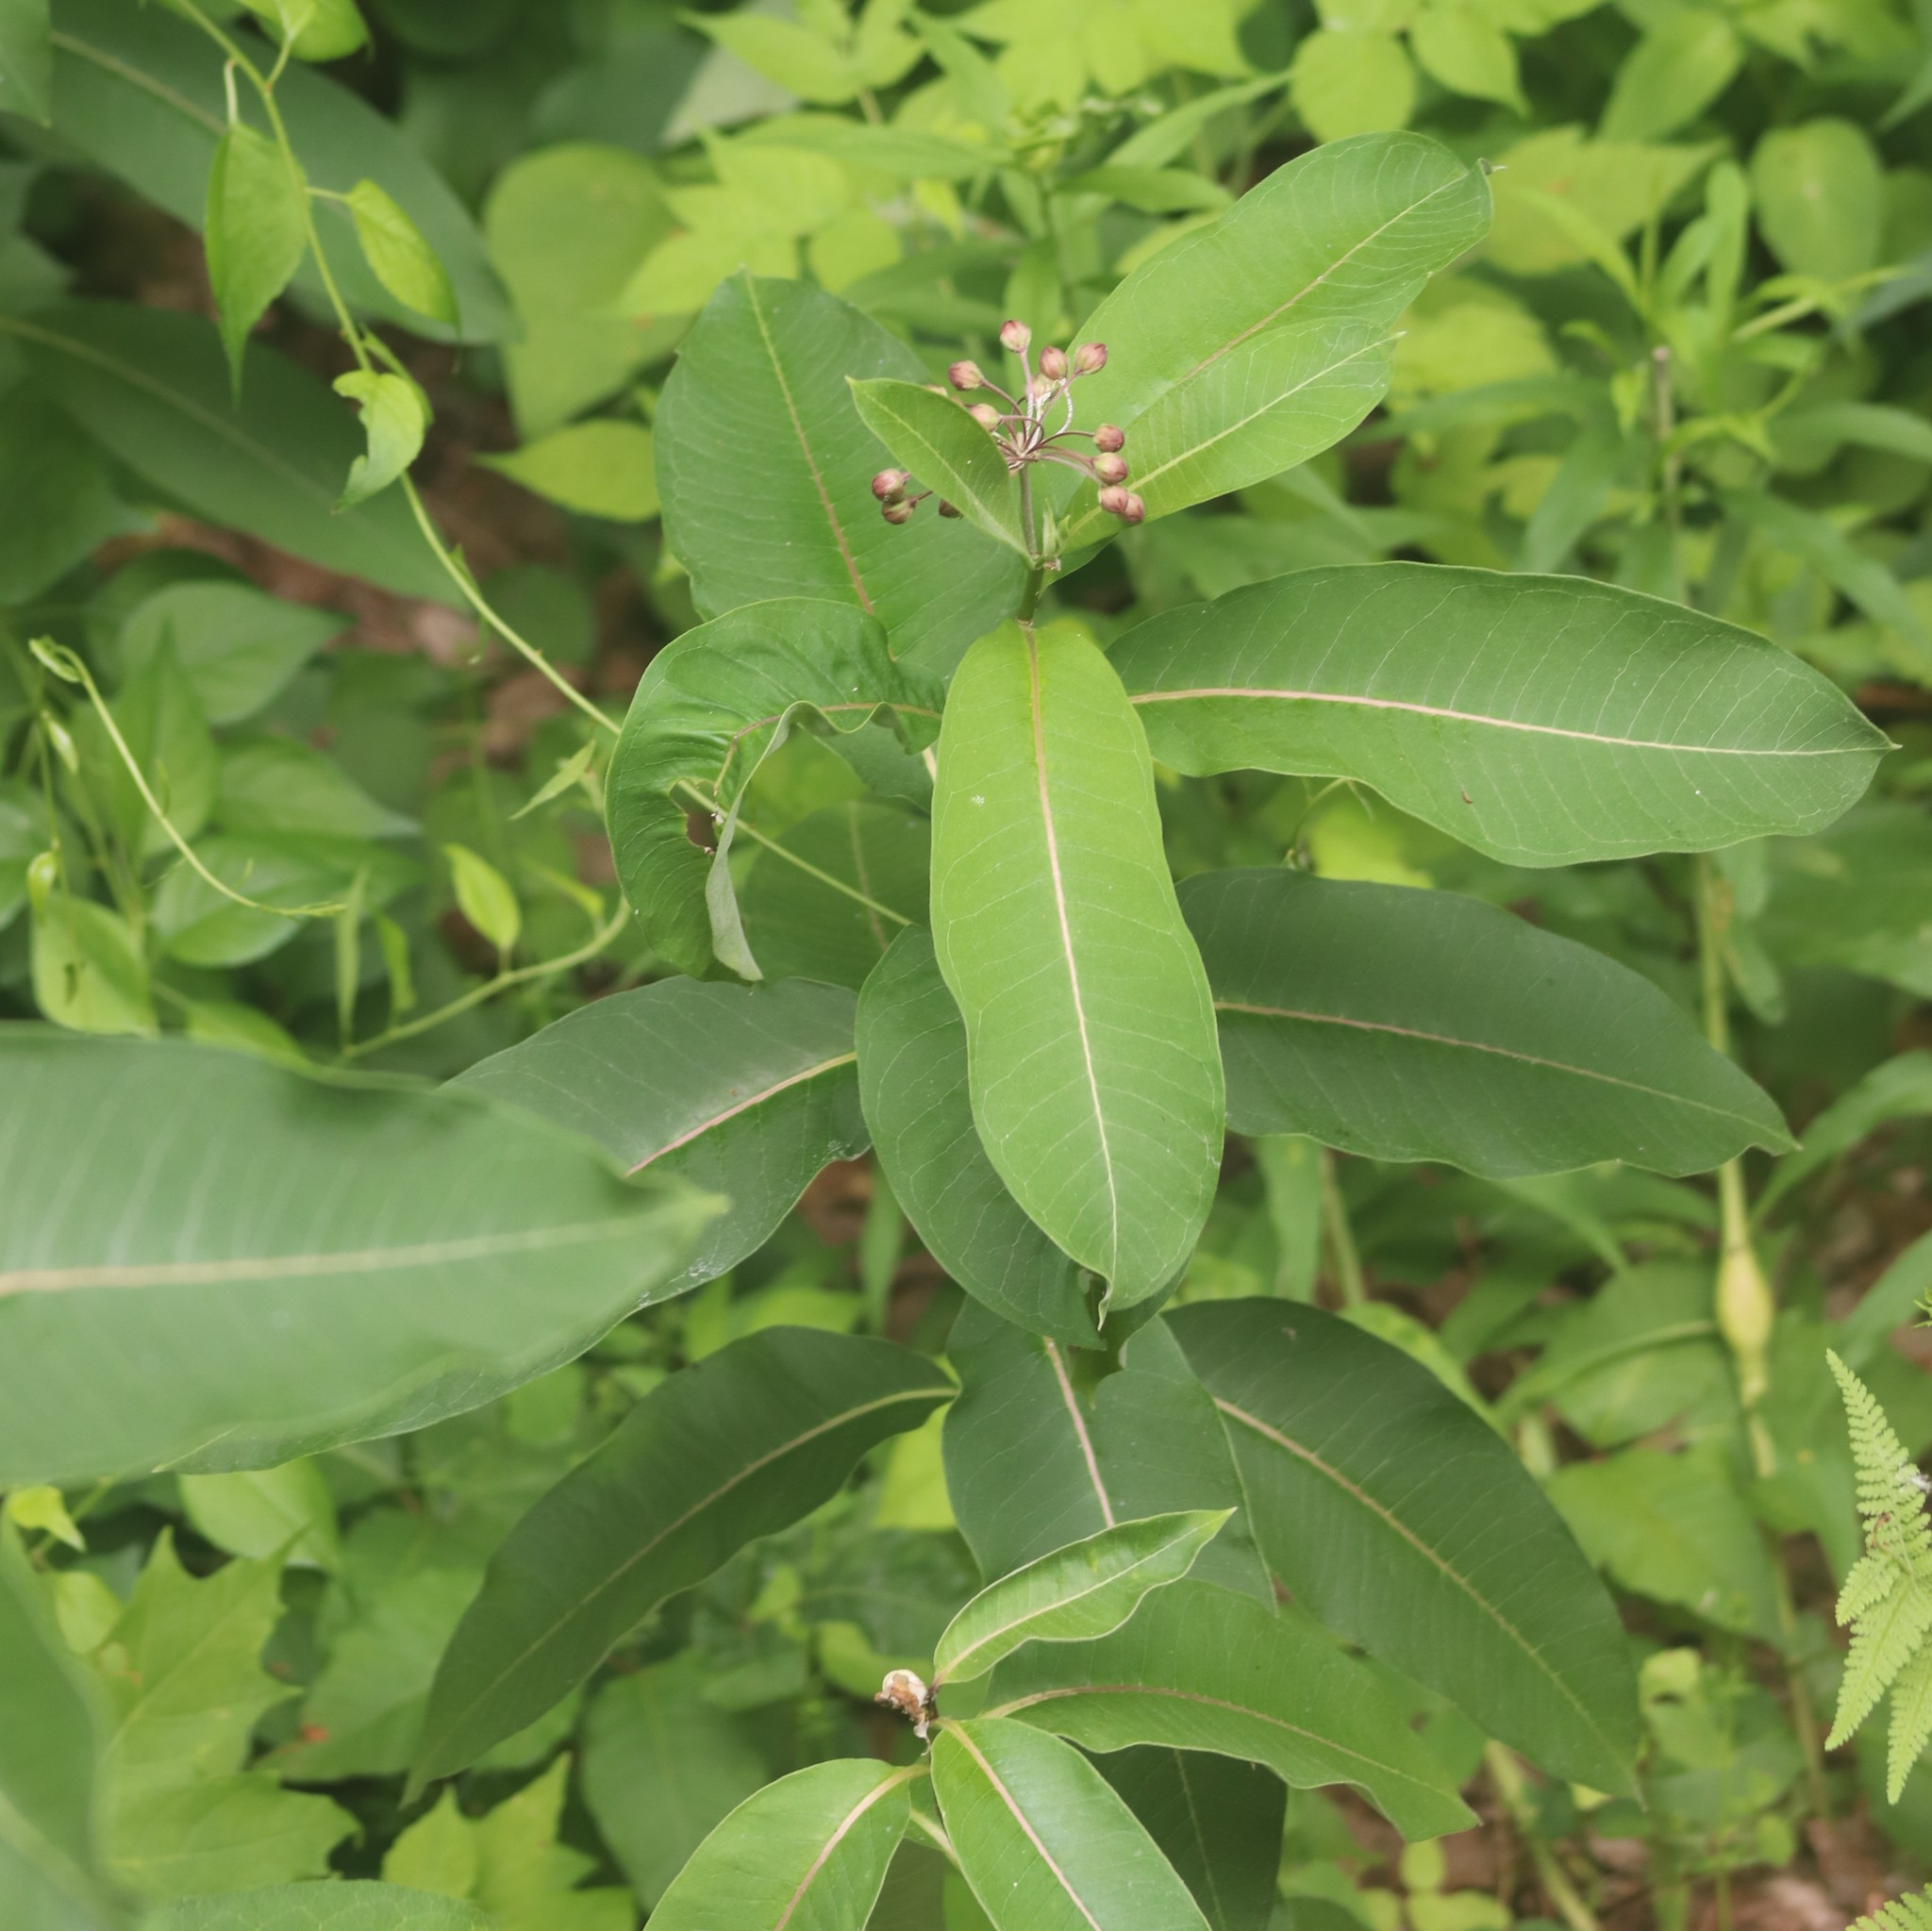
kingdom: Plantae
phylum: Tracheophyta
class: Magnoliopsida
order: Gentianales
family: Apocynaceae
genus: Asclepias
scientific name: Asclepias syriaca
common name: Common milkweed
